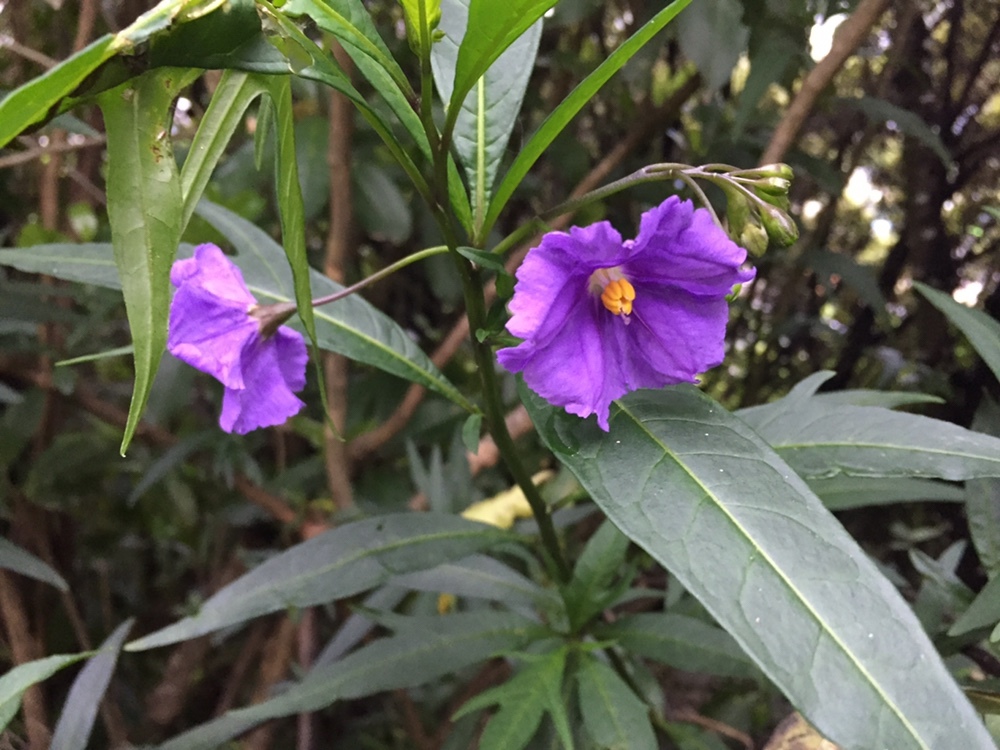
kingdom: Plantae
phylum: Tracheophyta
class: Magnoliopsida
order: Solanales
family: Solanaceae
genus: Solanum
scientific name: Solanum laciniatum
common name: Kangaroo-apple
